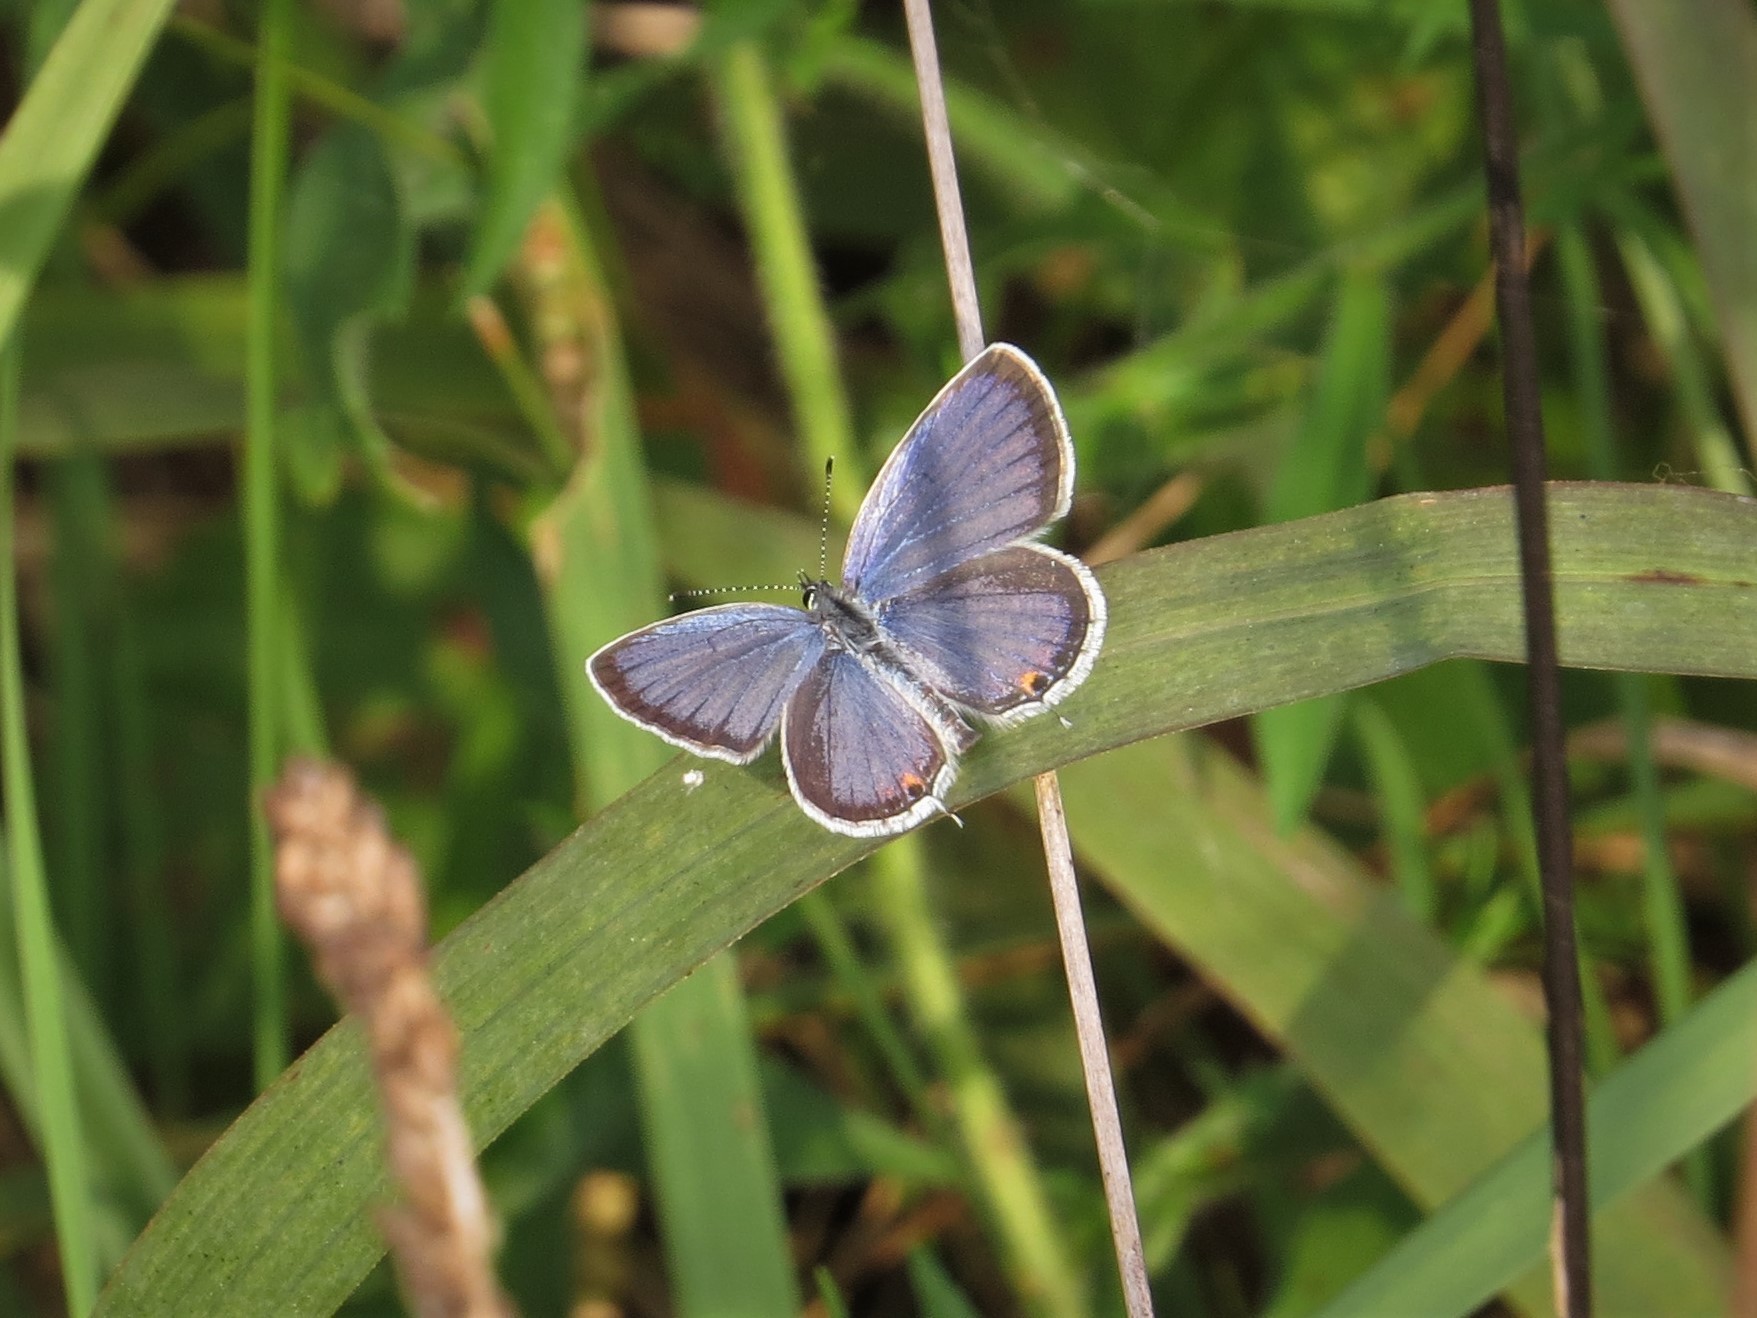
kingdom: Animalia
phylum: Arthropoda
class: Insecta
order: Lepidoptera
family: Lycaenidae
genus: Elkalyce
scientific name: Elkalyce comyntas
